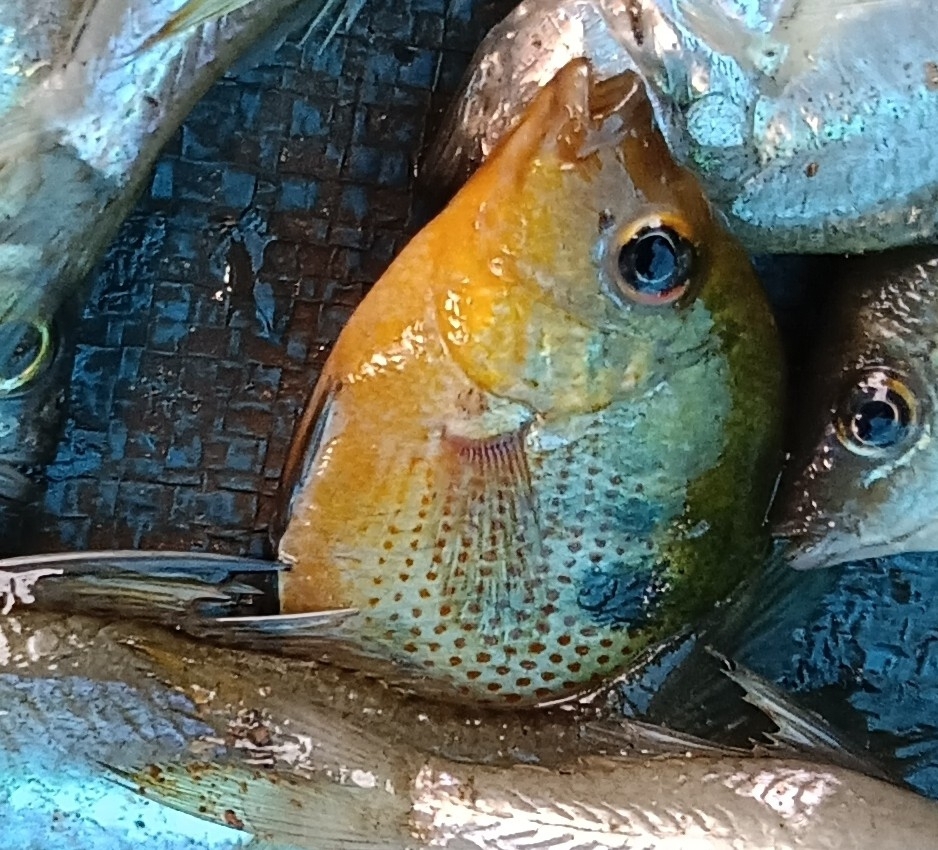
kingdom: Animalia
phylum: Chordata
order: Perciformes
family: Cichlidae
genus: Etroplus
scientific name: Etroplus maculatus
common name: Orange chromide
